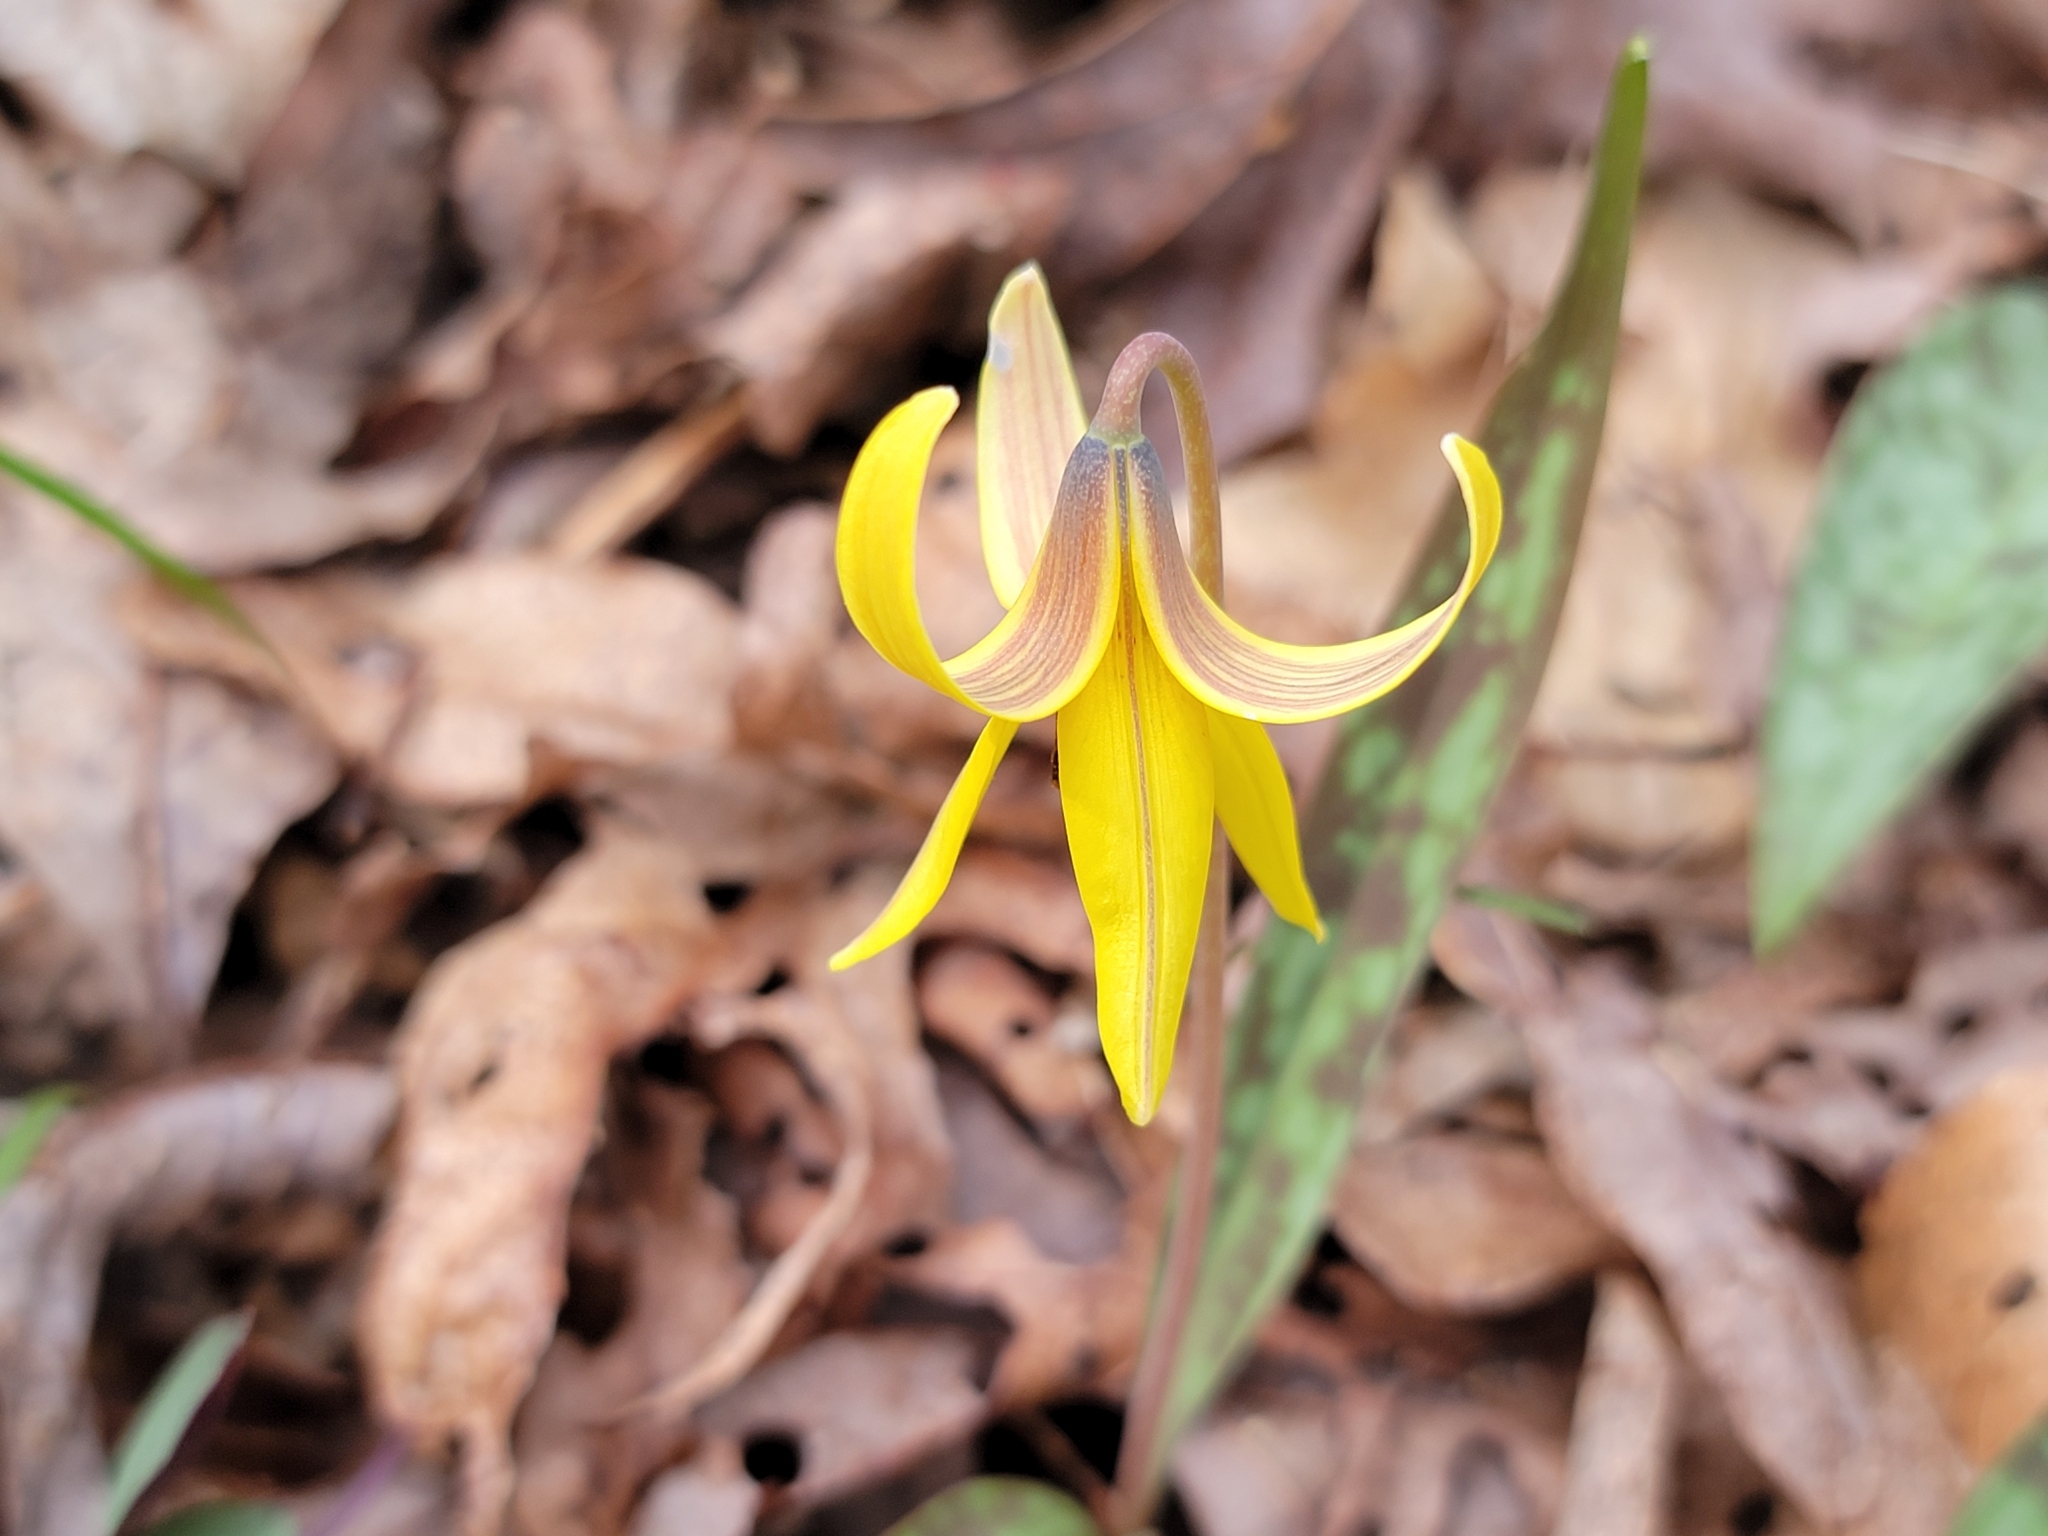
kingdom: Plantae
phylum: Tracheophyta
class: Liliopsida
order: Liliales
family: Liliaceae
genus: Erythronium
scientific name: Erythronium americanum
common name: Yellow adder's-tongue
